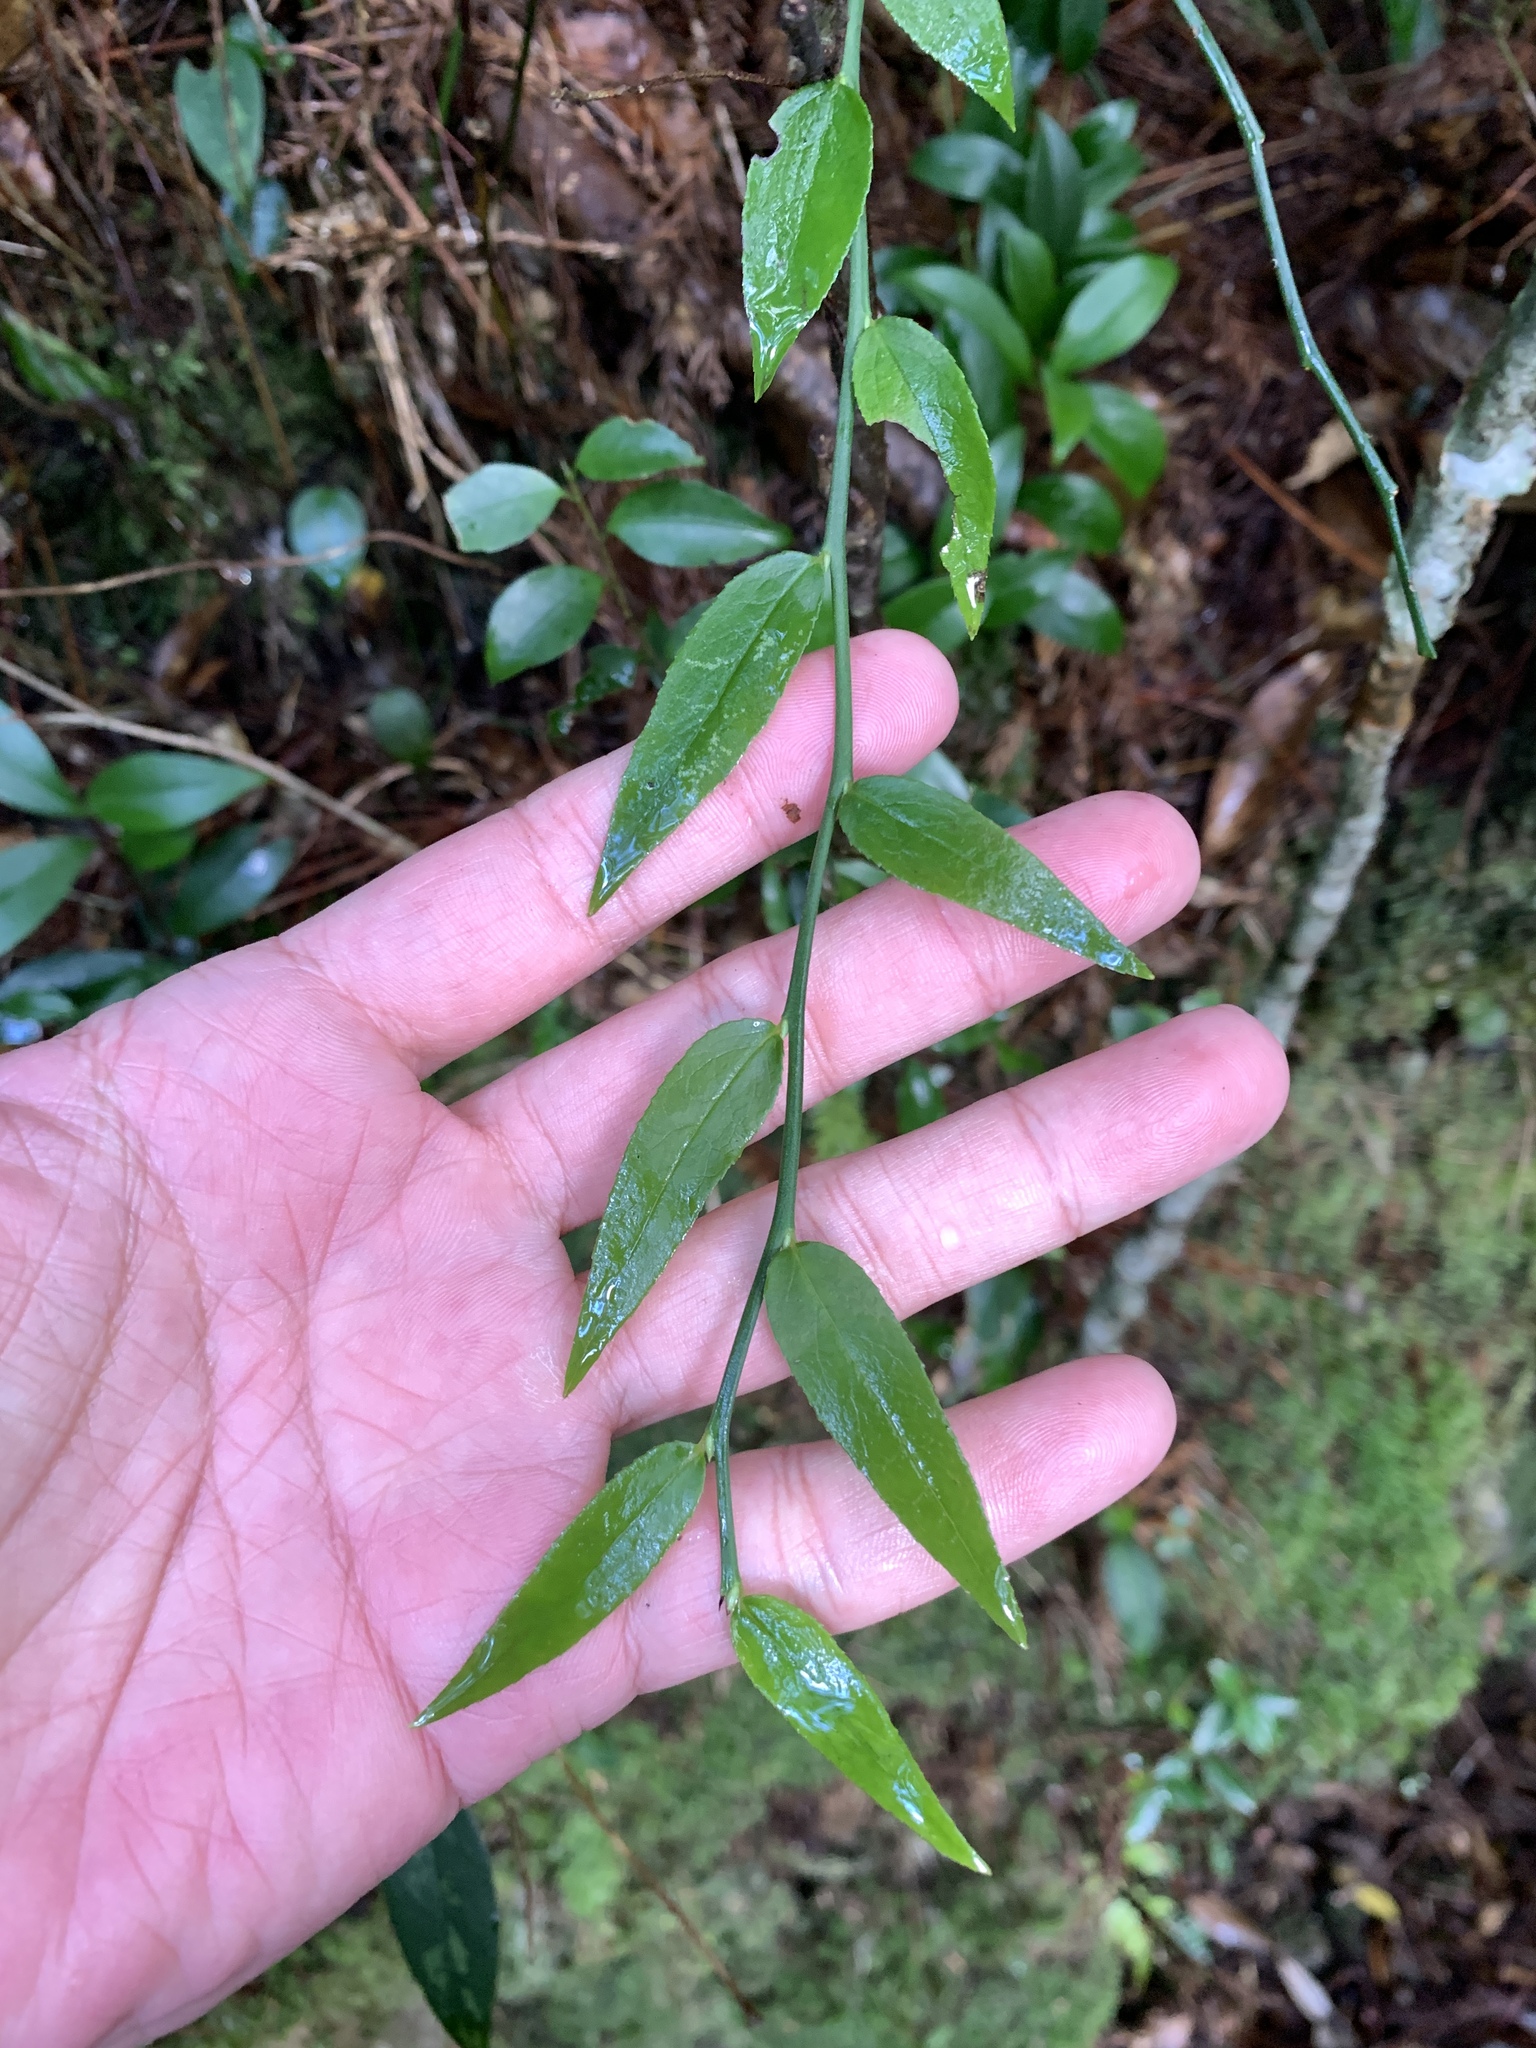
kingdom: Plantae
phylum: Tracheophyta
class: Magnoliopsida
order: Ericales
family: Ericaceae
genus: Vaccinium
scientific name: Vaccinium japonicum
